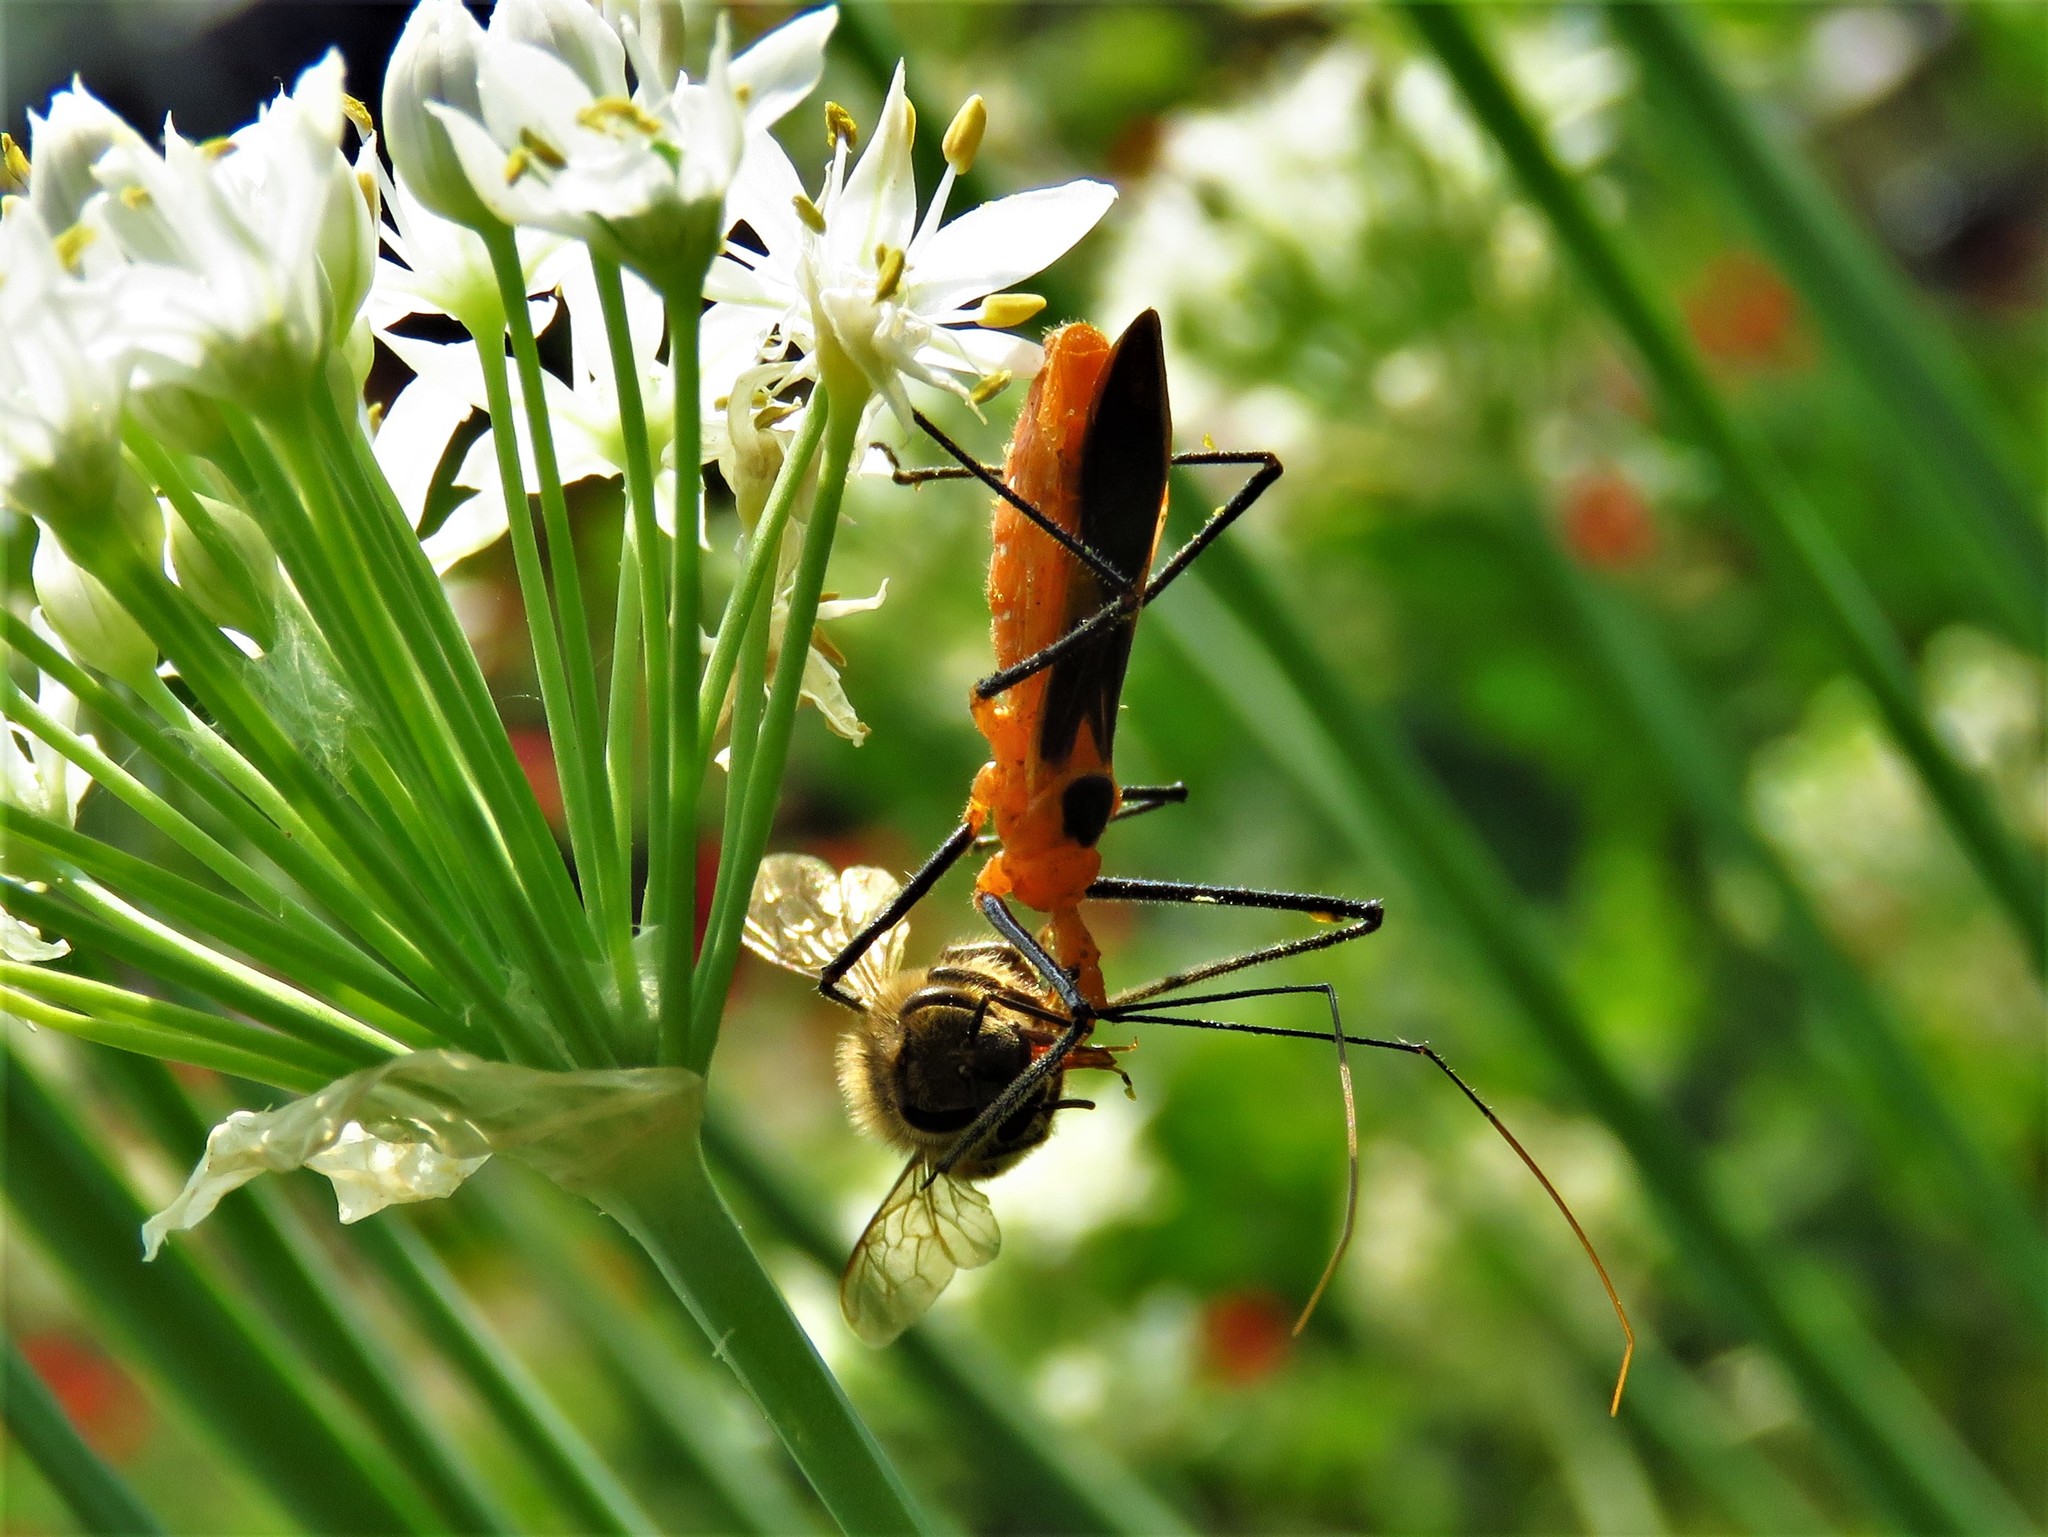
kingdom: Animalia
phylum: Arthropoda
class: Insecta
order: Hemiptera
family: Reduviidae
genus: Zelus
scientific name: Zelus longipes
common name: Milkweed assassin bug
